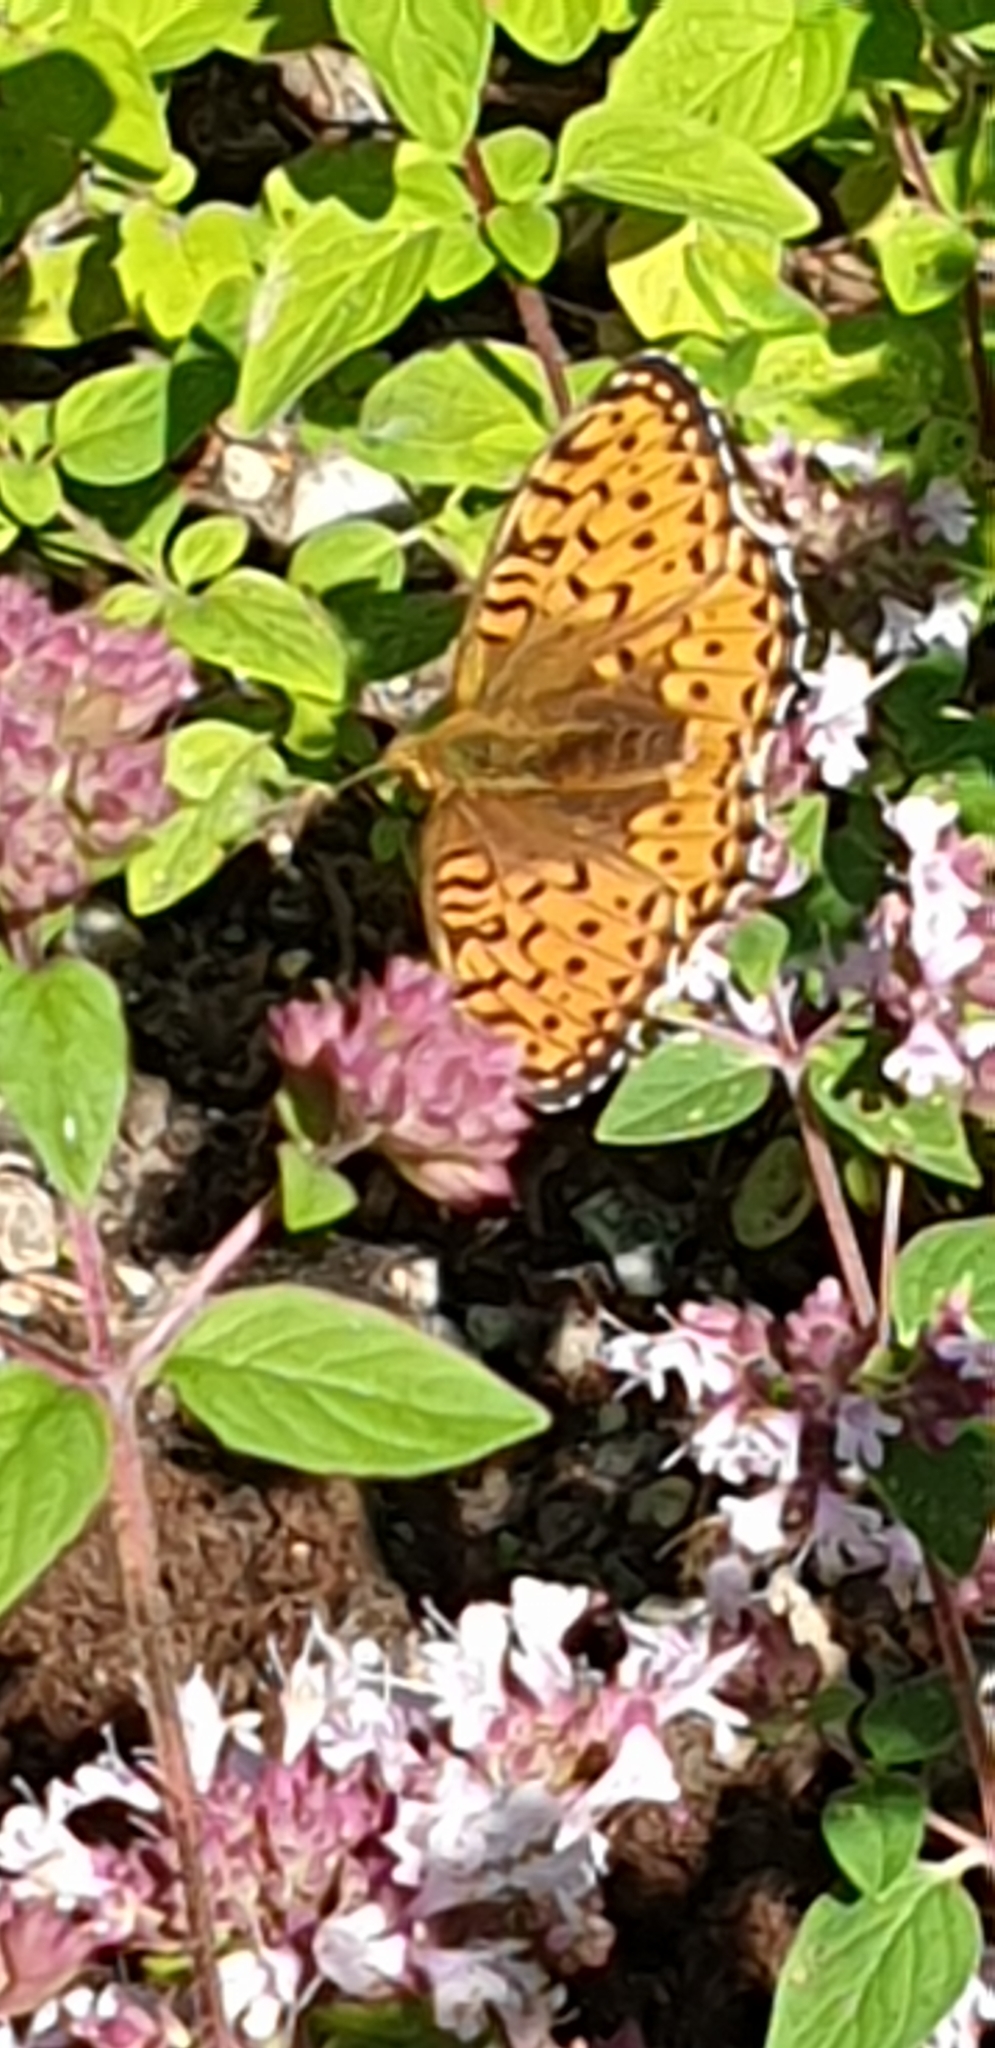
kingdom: Animalia
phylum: Arthropoda
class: Insecta
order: Lepidoptera
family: Nymphalidae
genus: Speyeria
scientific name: Speyeria aglaja
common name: Dark green fritillary
